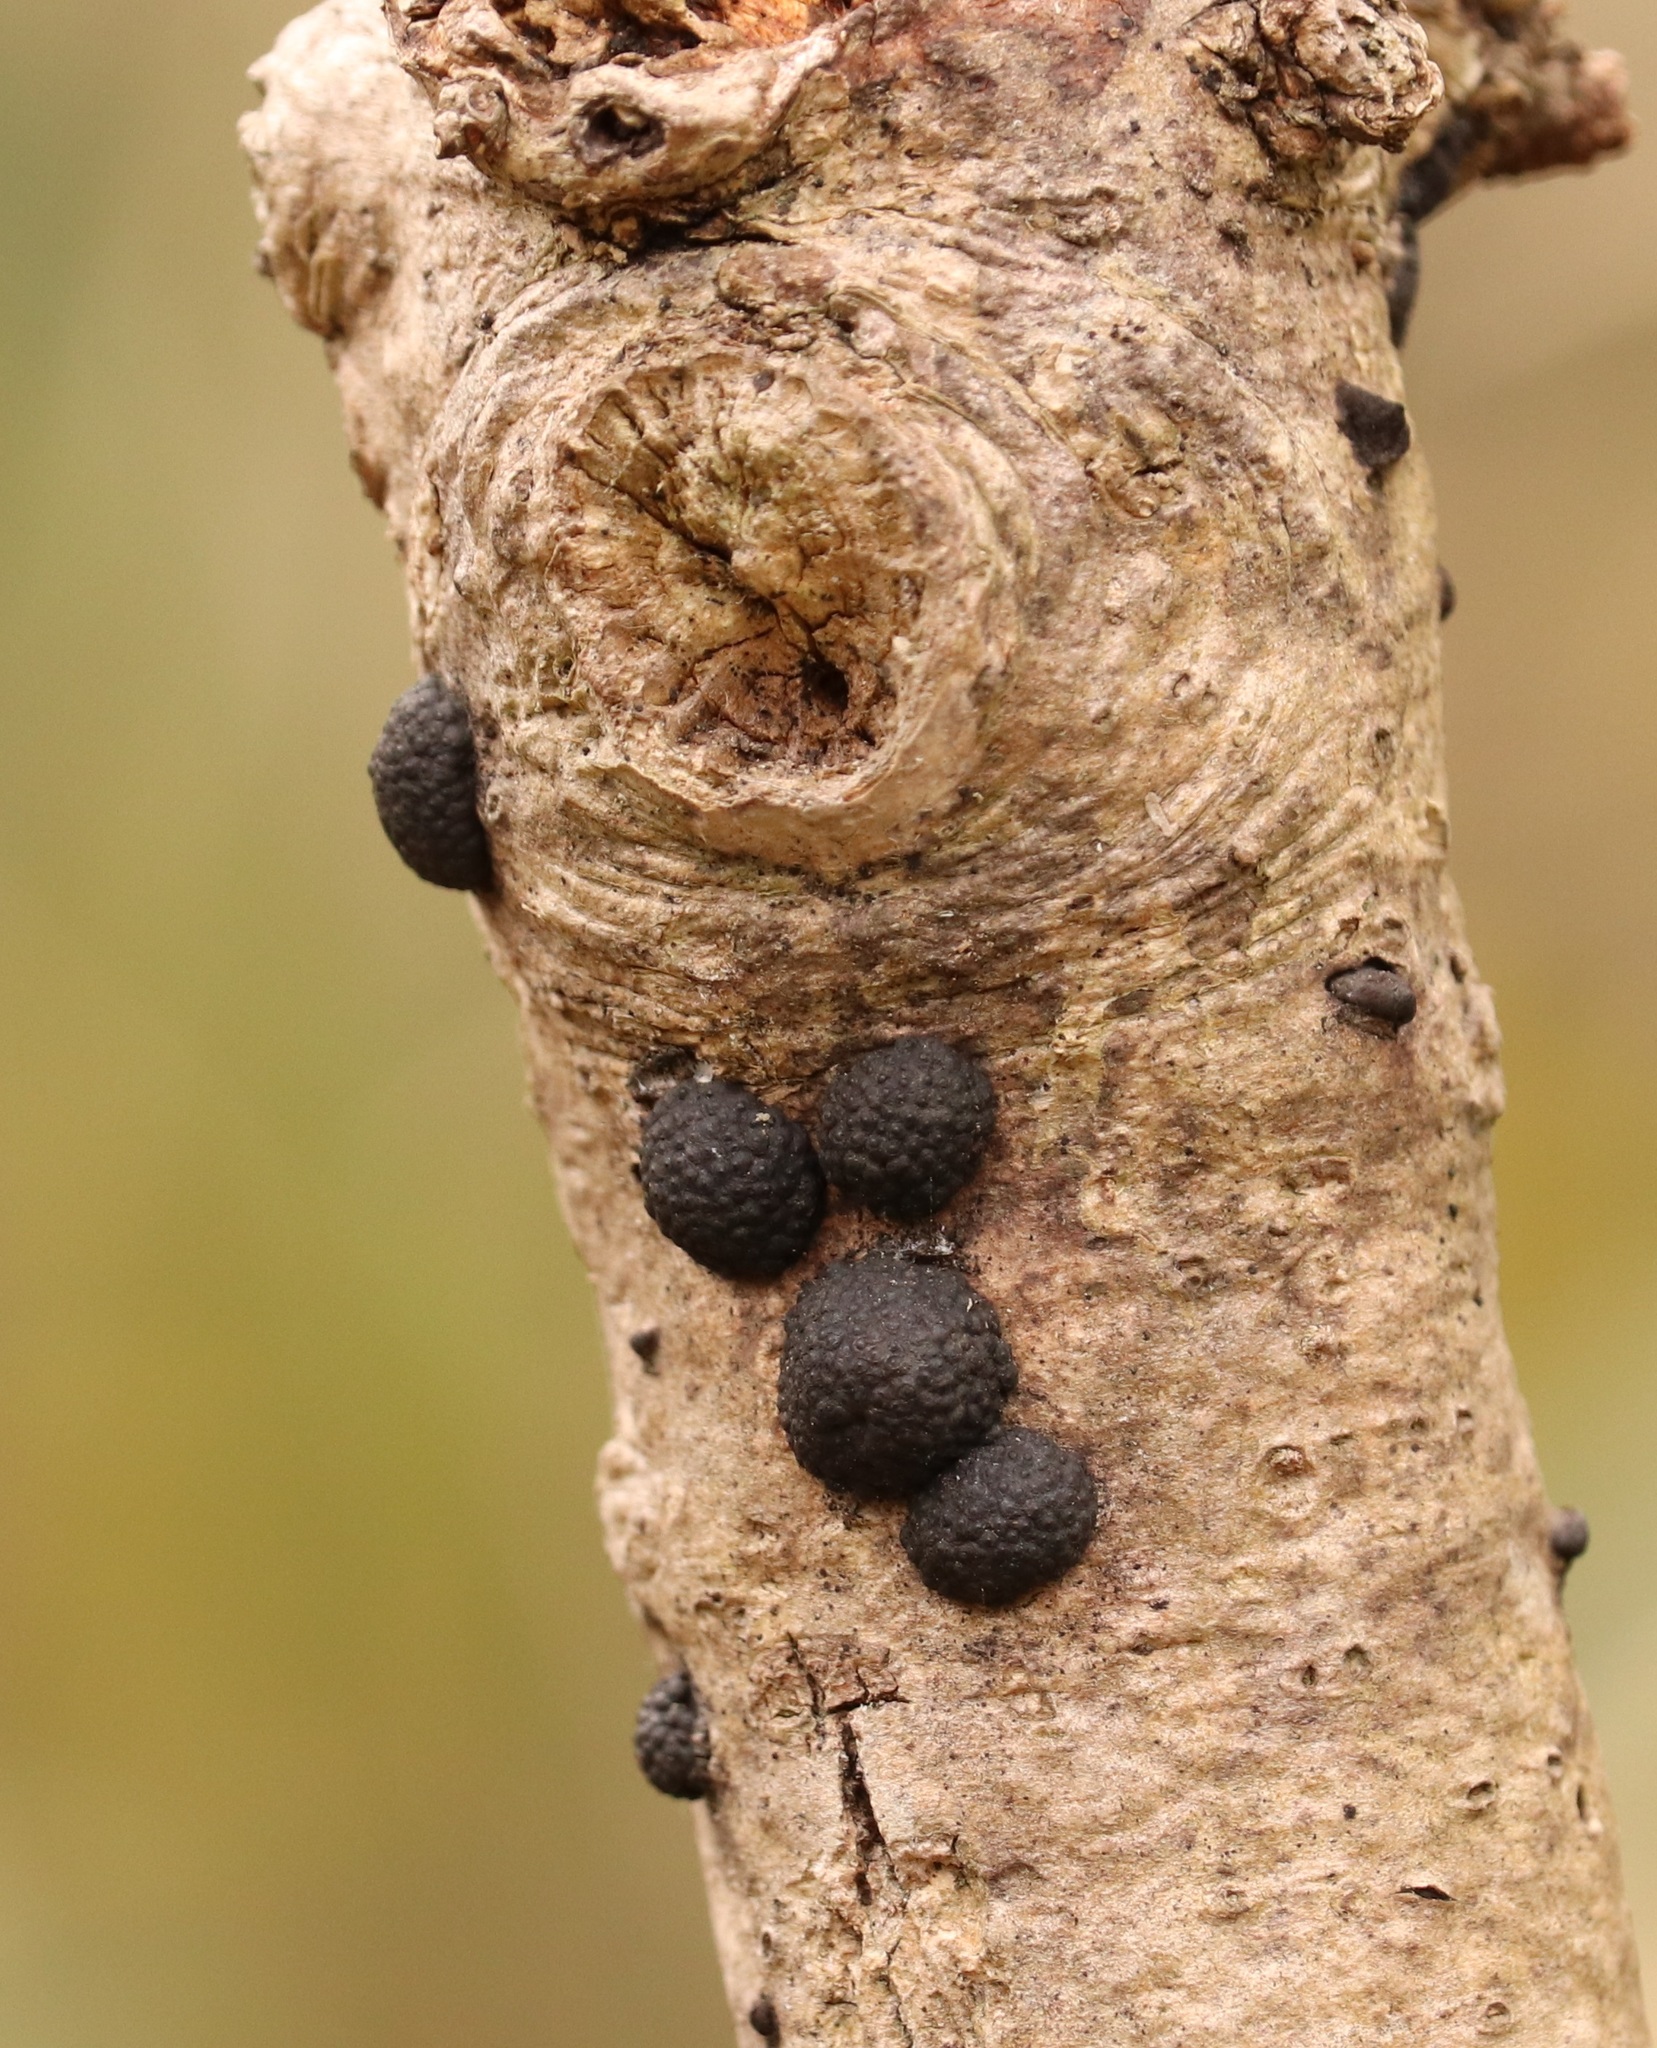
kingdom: Fungi
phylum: Ascomycota
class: Sordariomycetes
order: Xylariales
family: Hypoxylaceae
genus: Annulohypoxylon
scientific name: Annulohypoxylon truncatum
